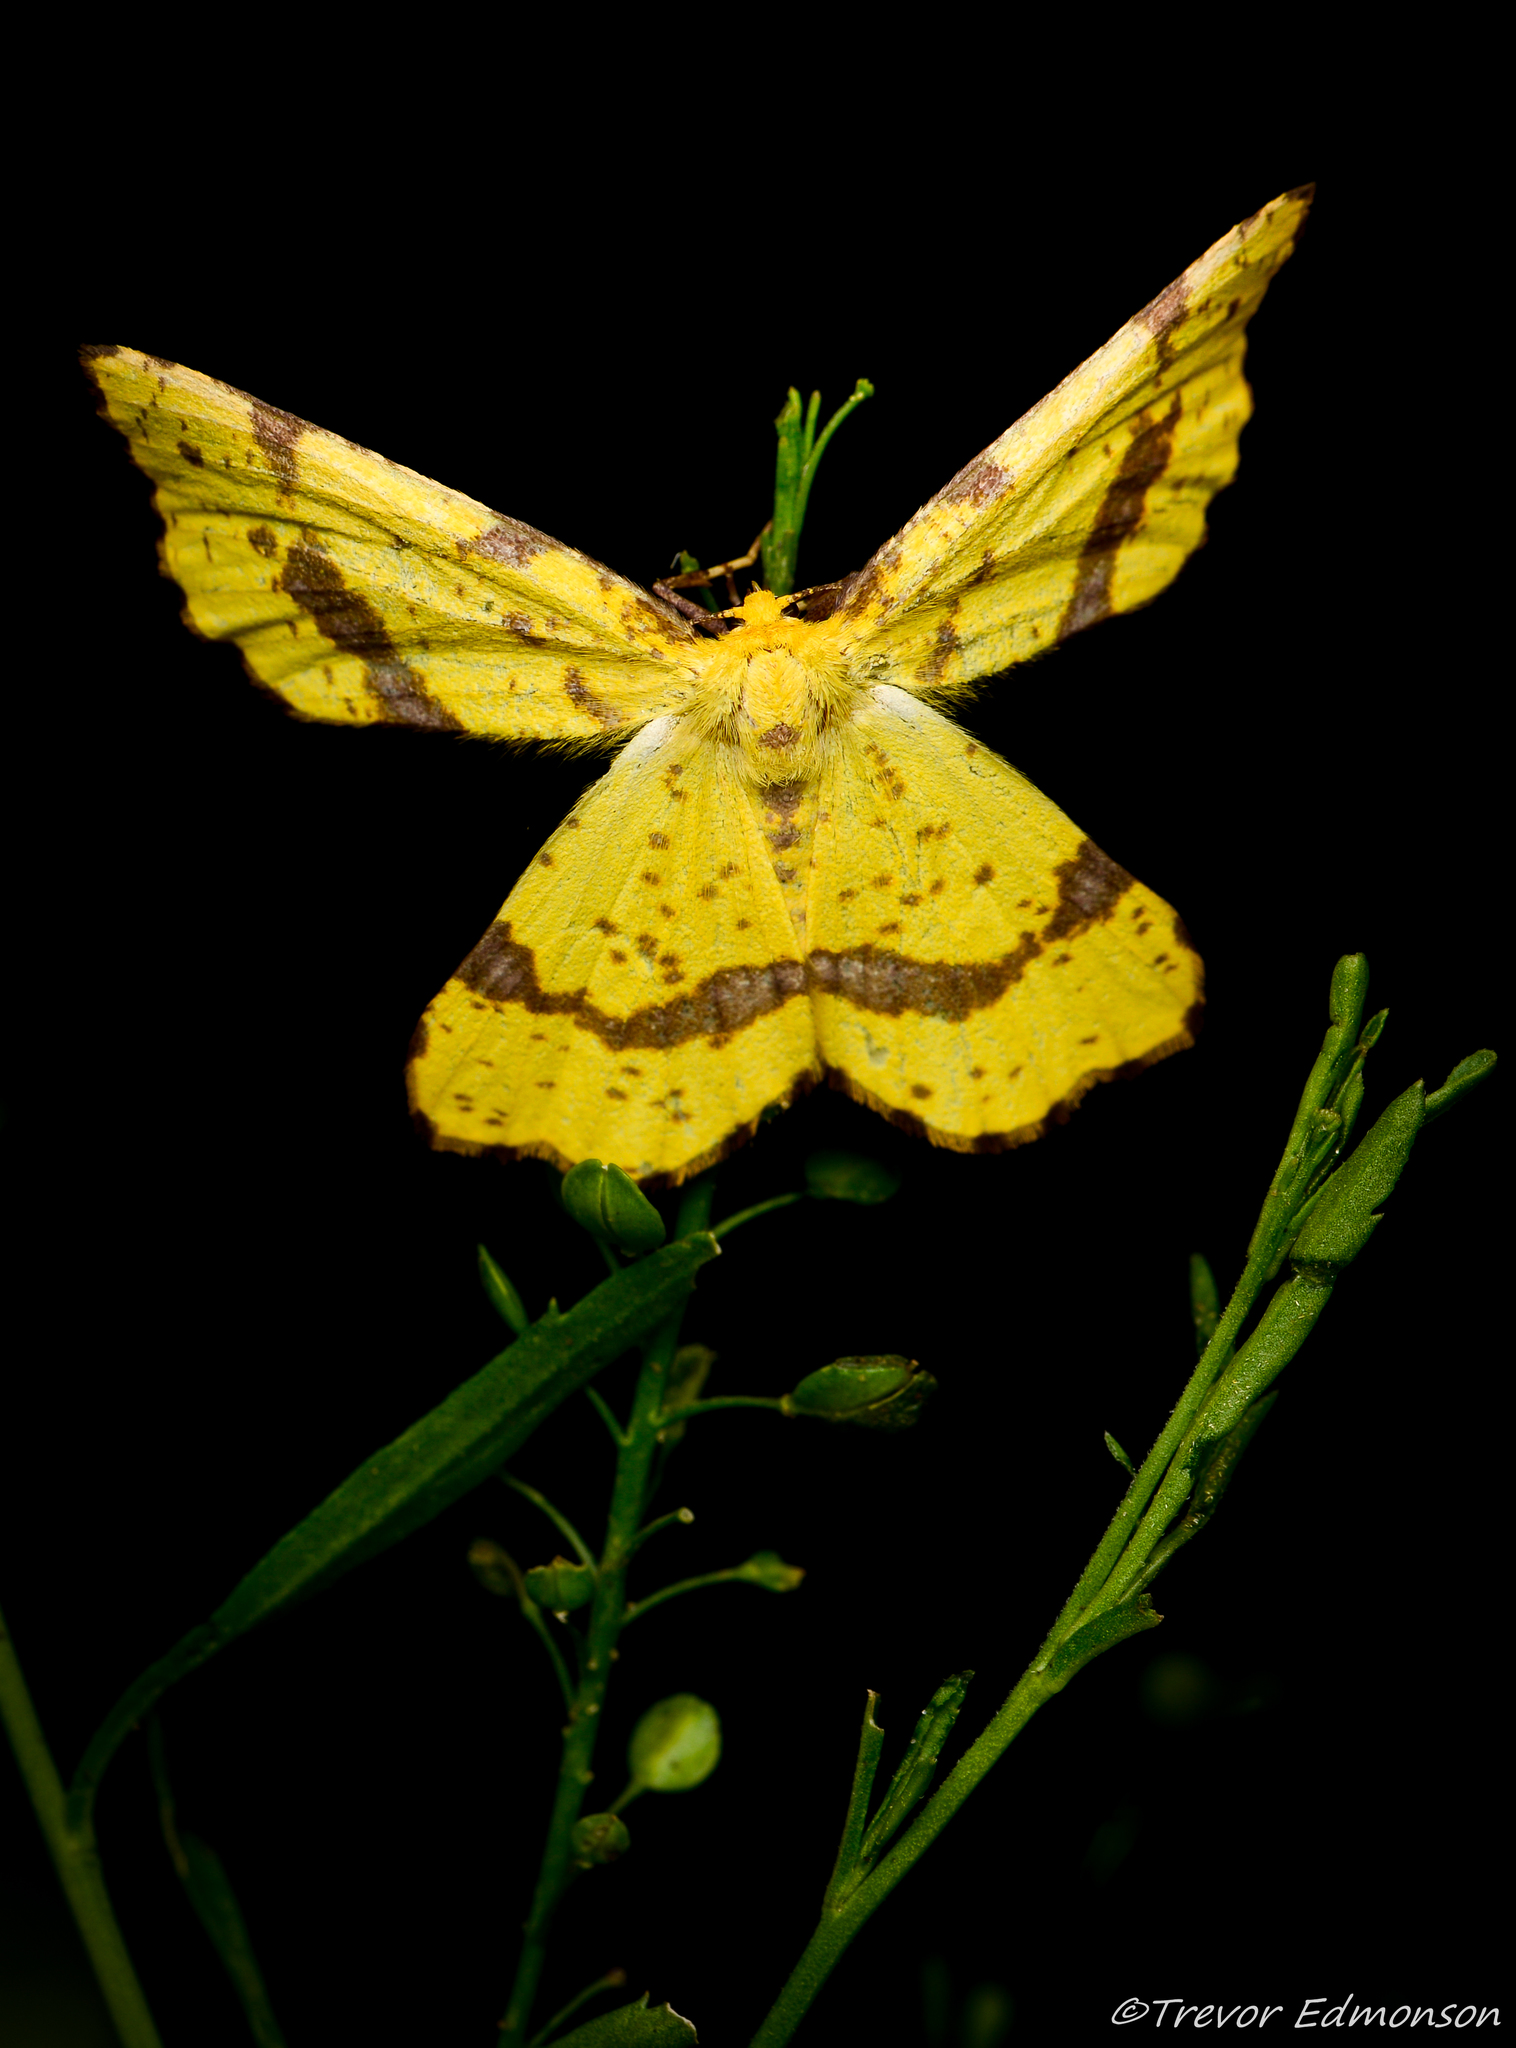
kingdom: Animalia
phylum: Arthropoda
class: Insecta
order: Lepidoptera
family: Geometridae
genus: Xanthotype
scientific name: Xanthotype
